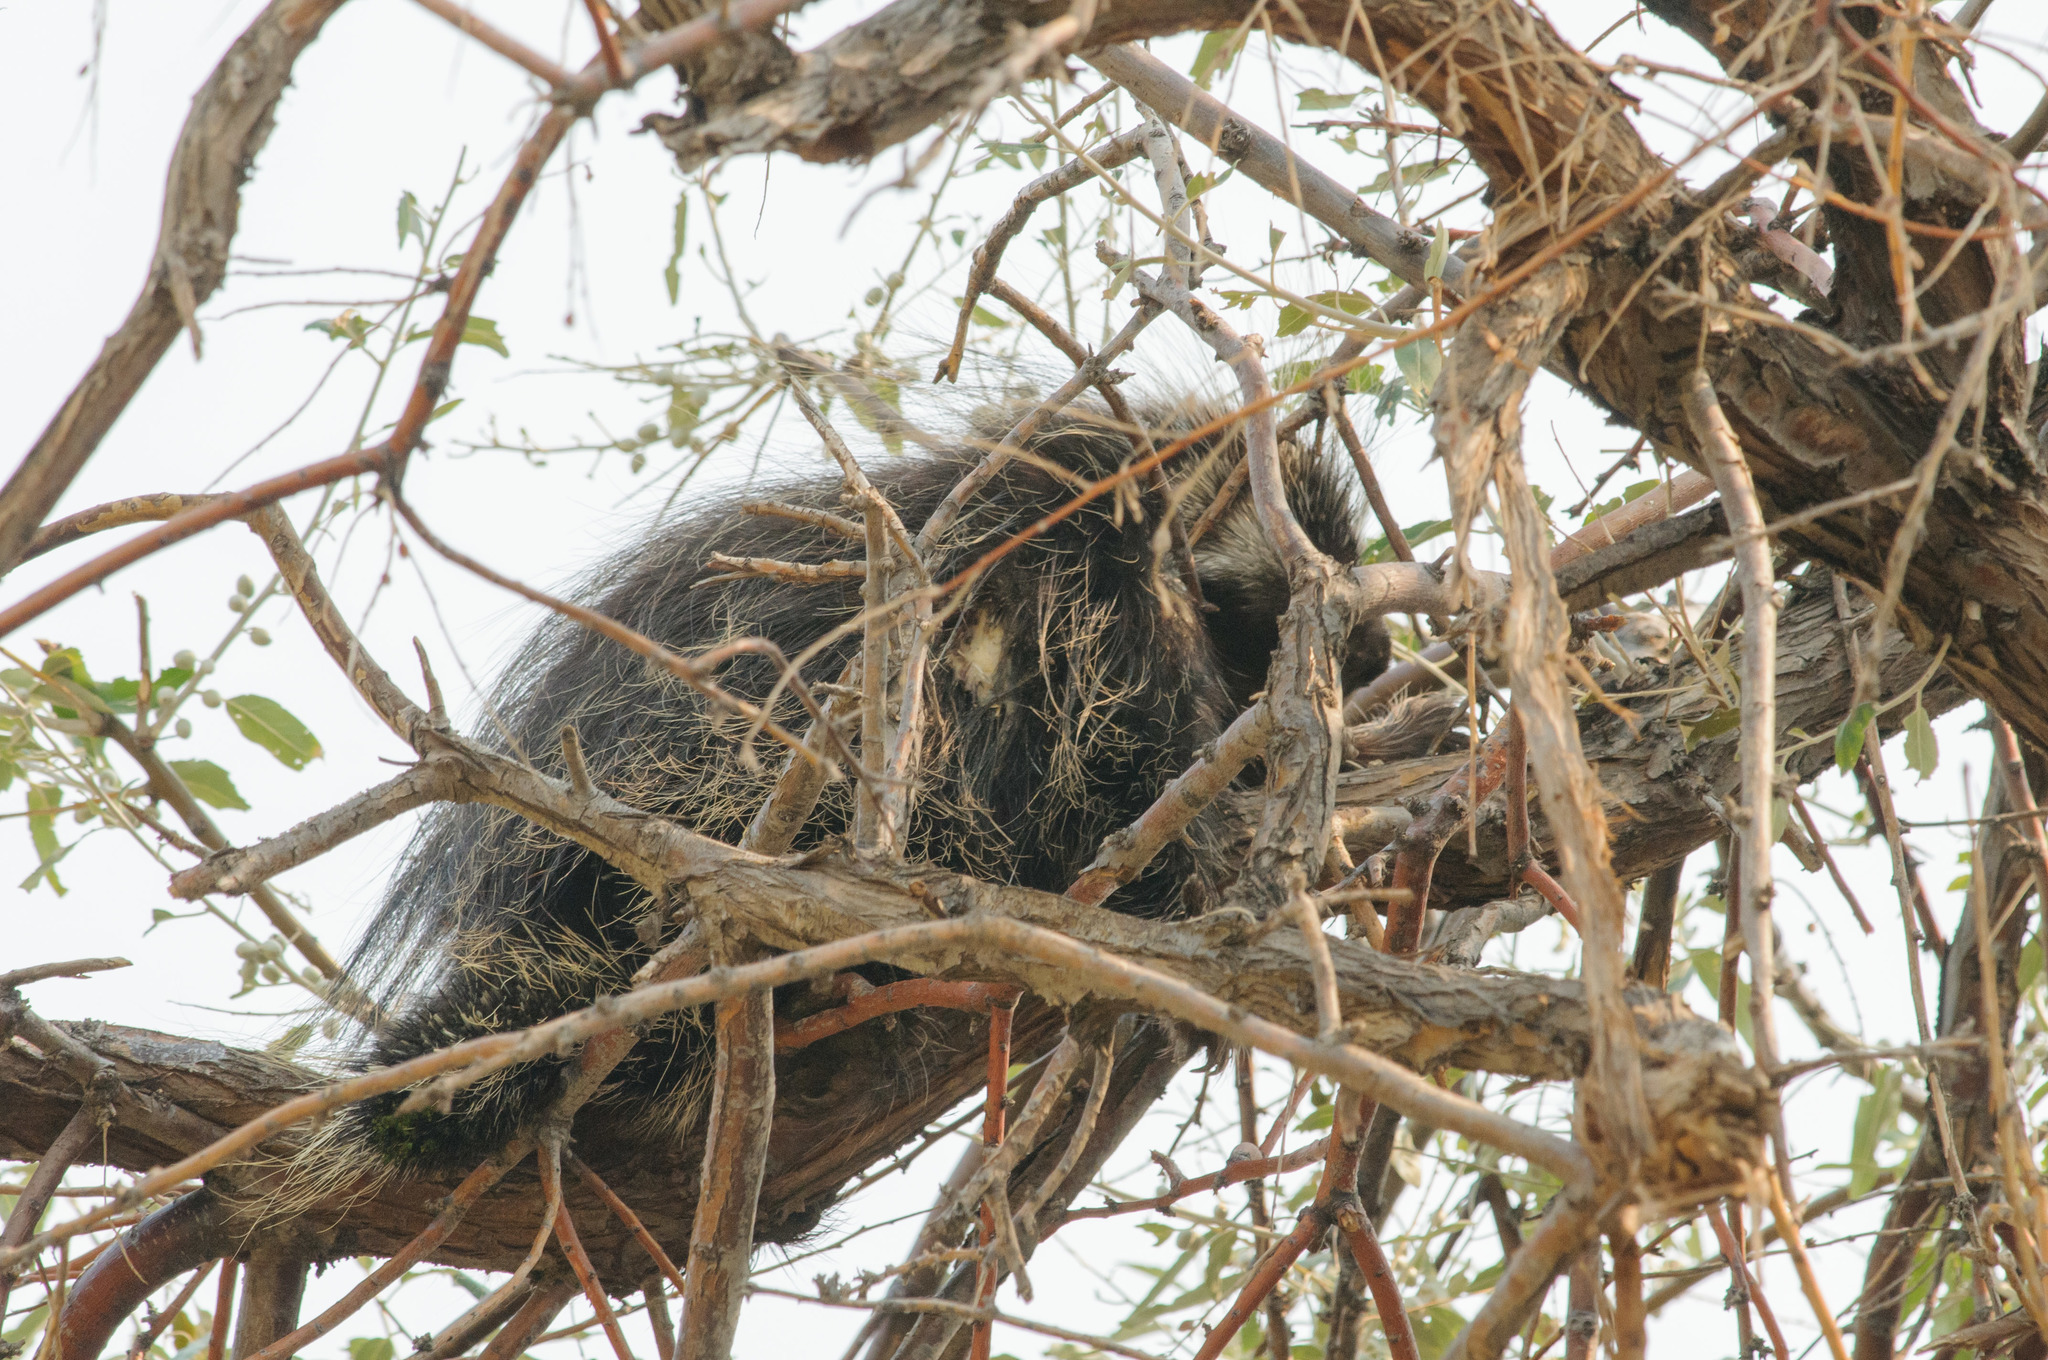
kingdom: Animalia
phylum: Chordata
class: Mammalia
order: Rodentia
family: Erethizontidae
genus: Erethizon
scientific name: Erethizon dorsatus
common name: North american porcupine
